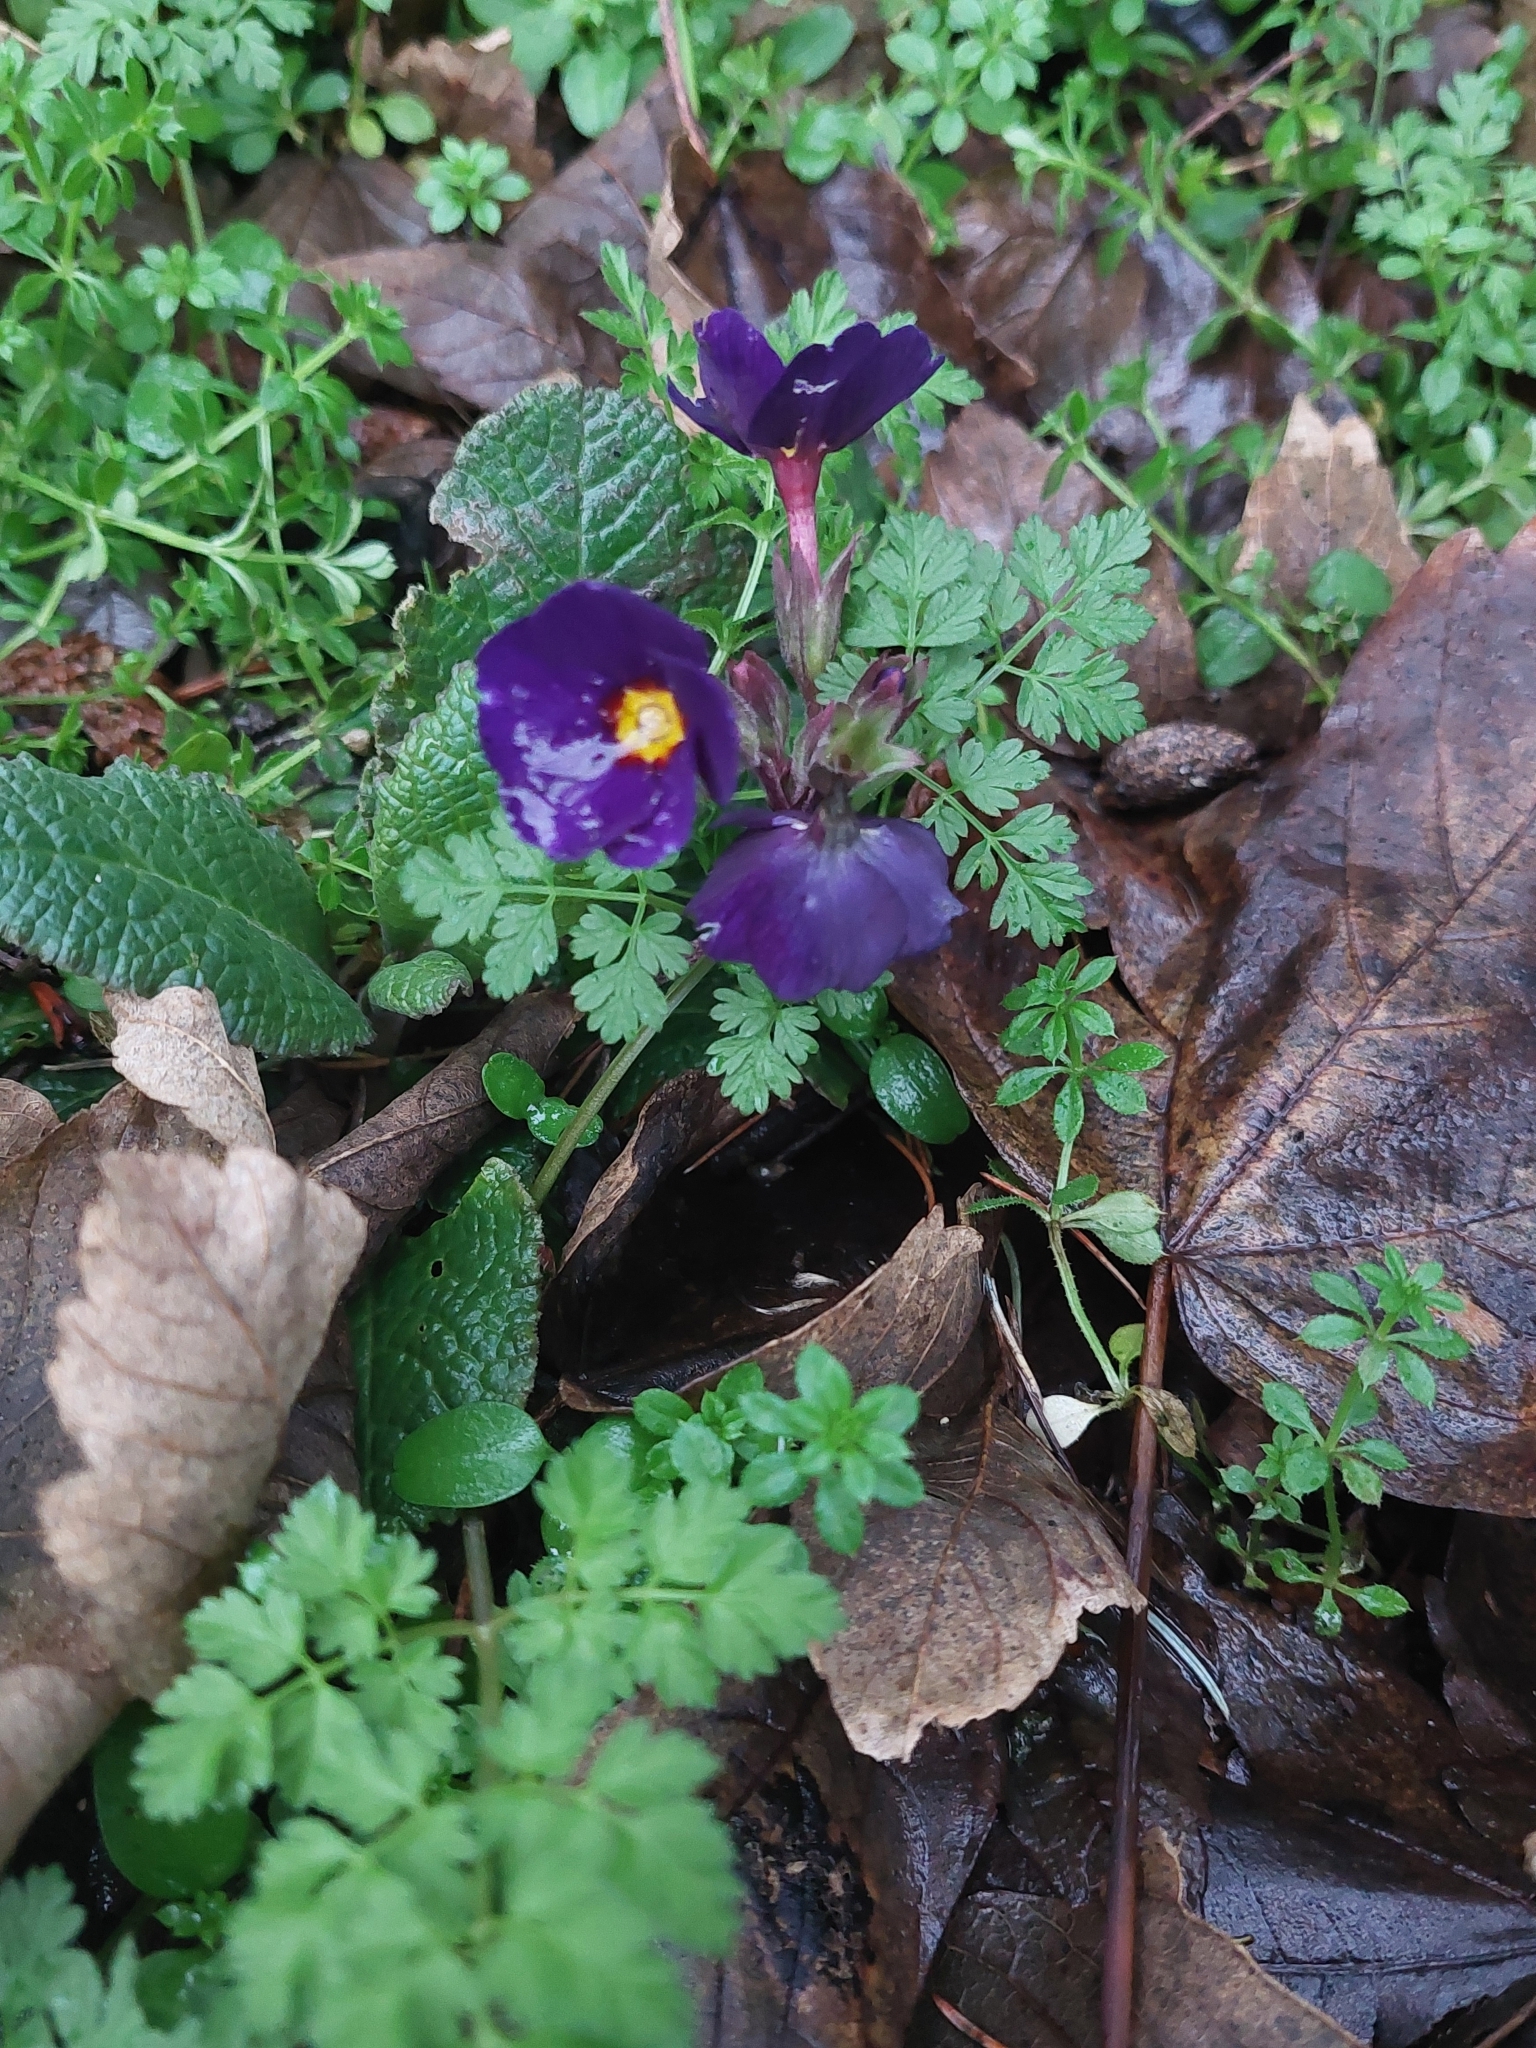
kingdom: Plantae
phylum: Tracheophyta
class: Magnoliopsida
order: Ericales
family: Primulaceae
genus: Primula
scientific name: Primula polyantha
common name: False oxlip
